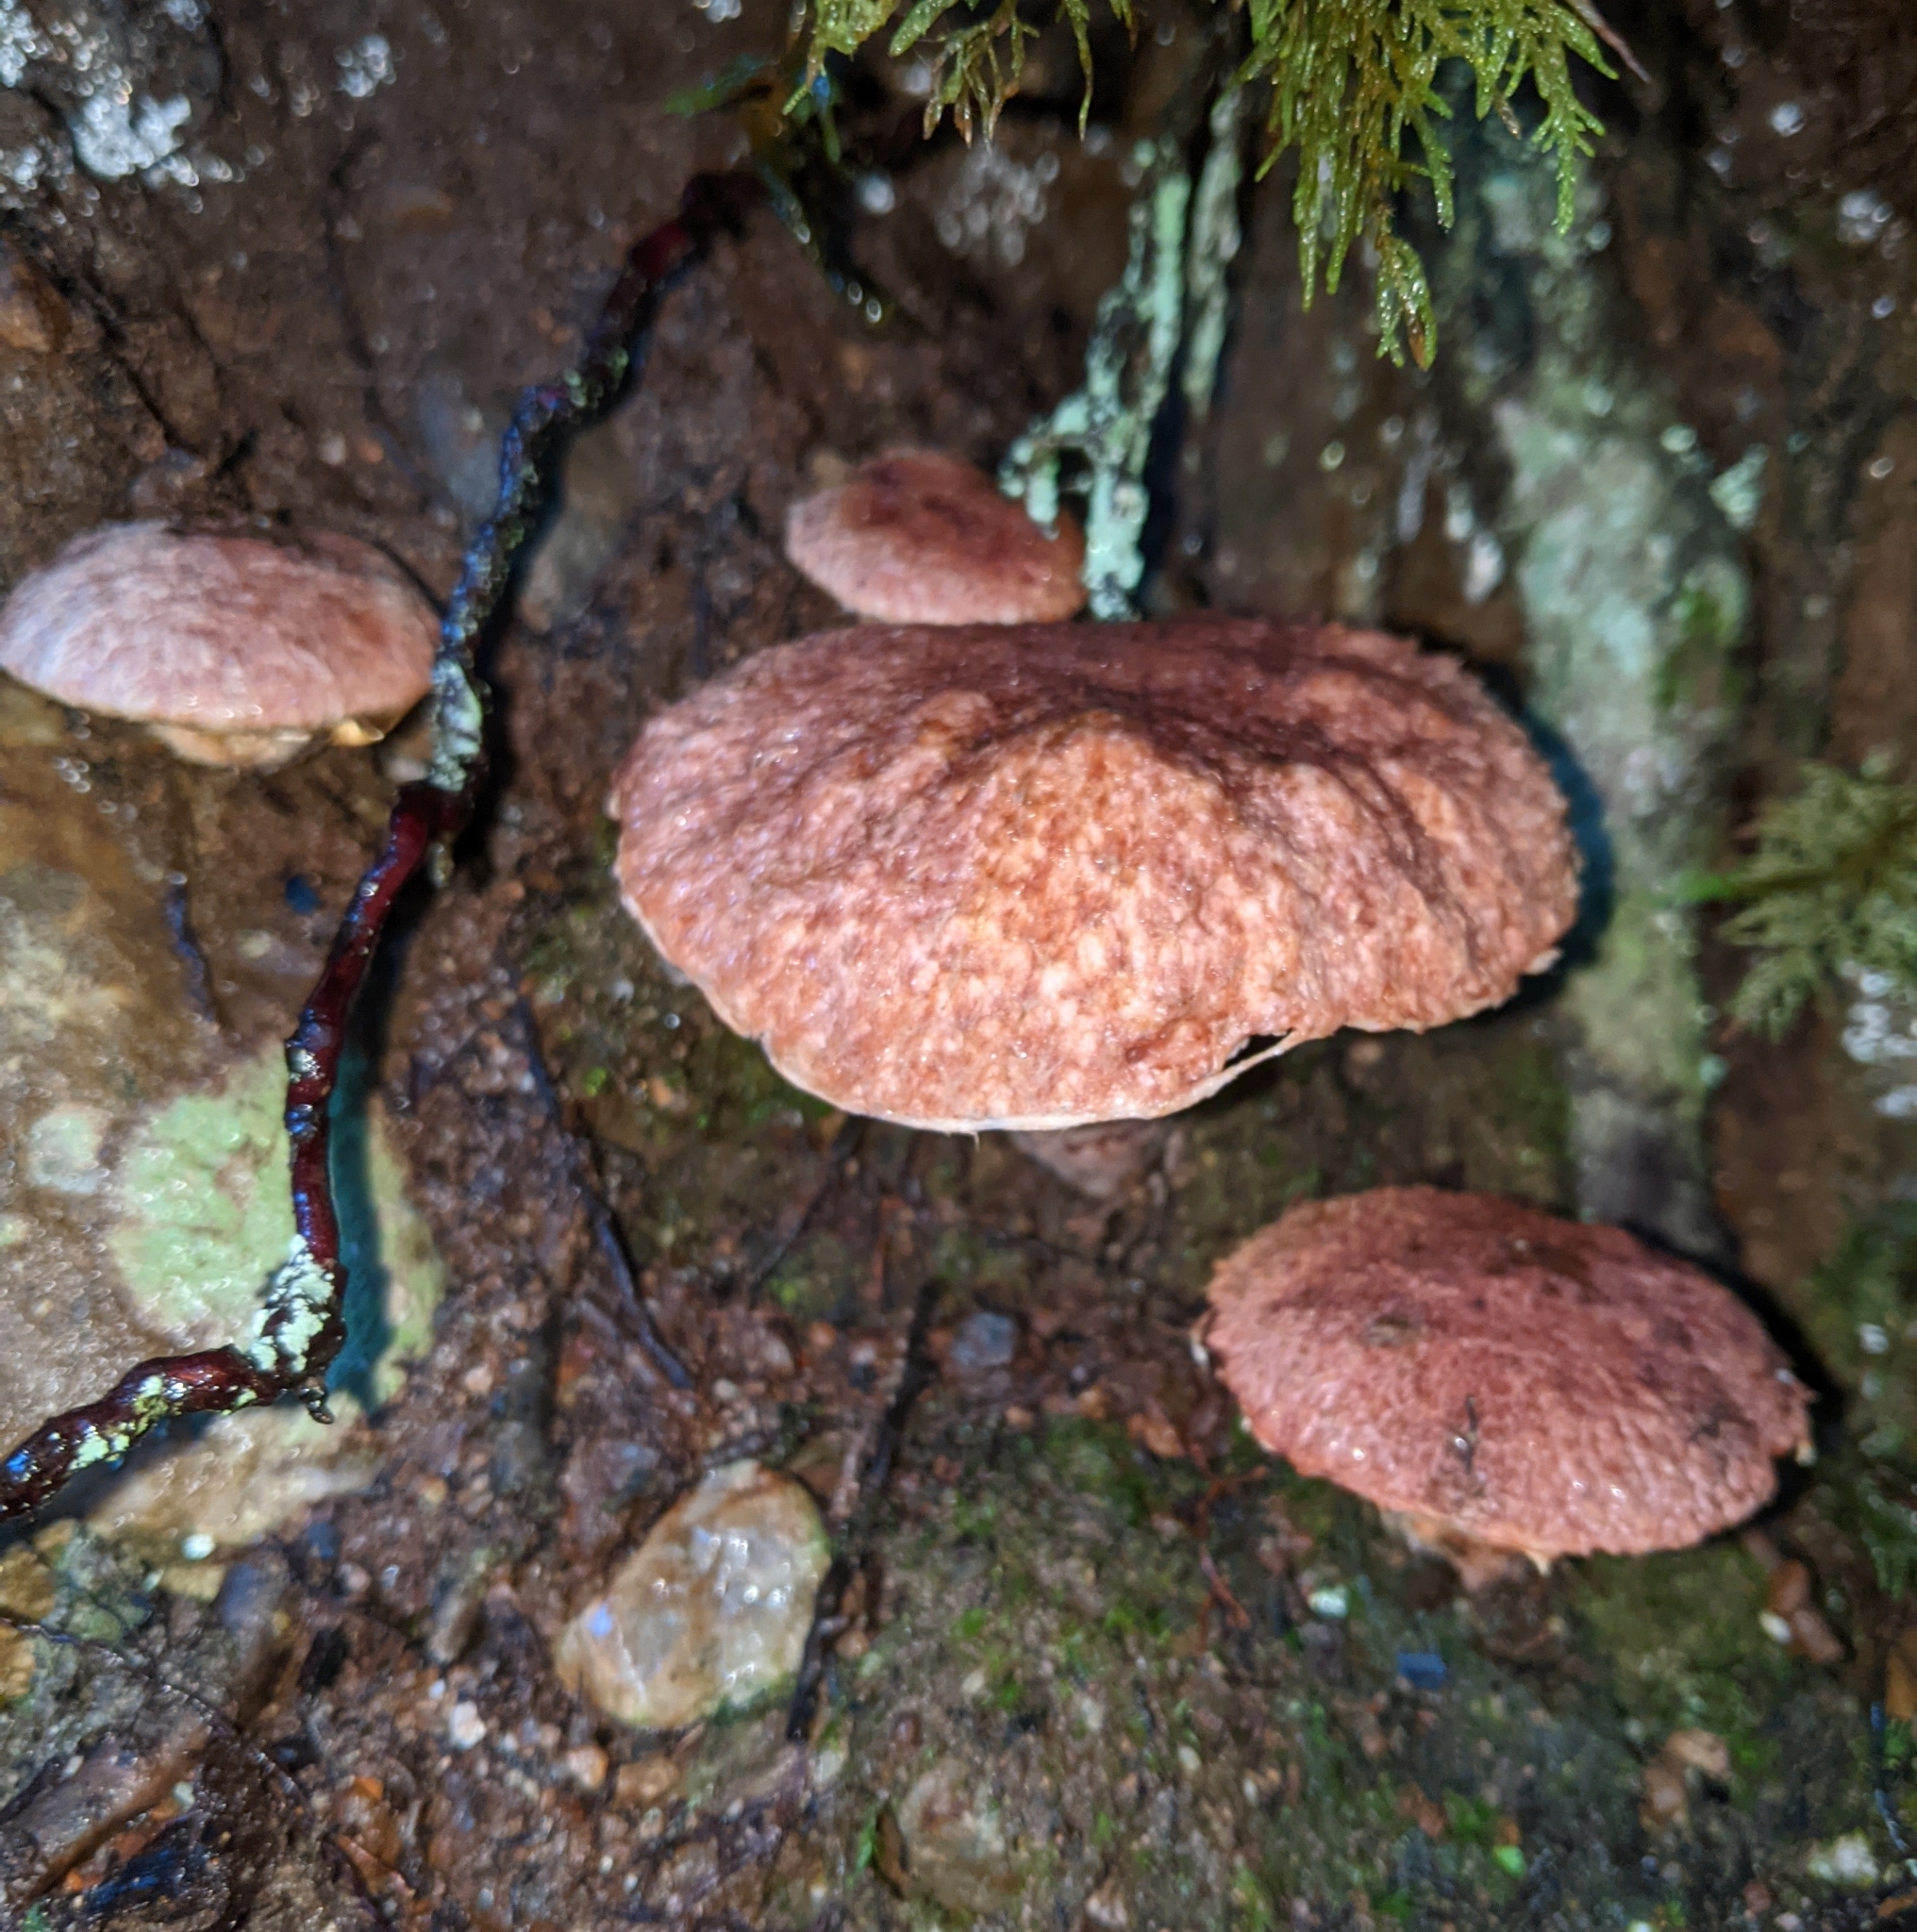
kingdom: Fungi
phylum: Basidiomycota
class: Agaricomycetes
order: Boletales
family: Suillaceae
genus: Suillus
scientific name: Suillus lakei
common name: Western painted suillus
